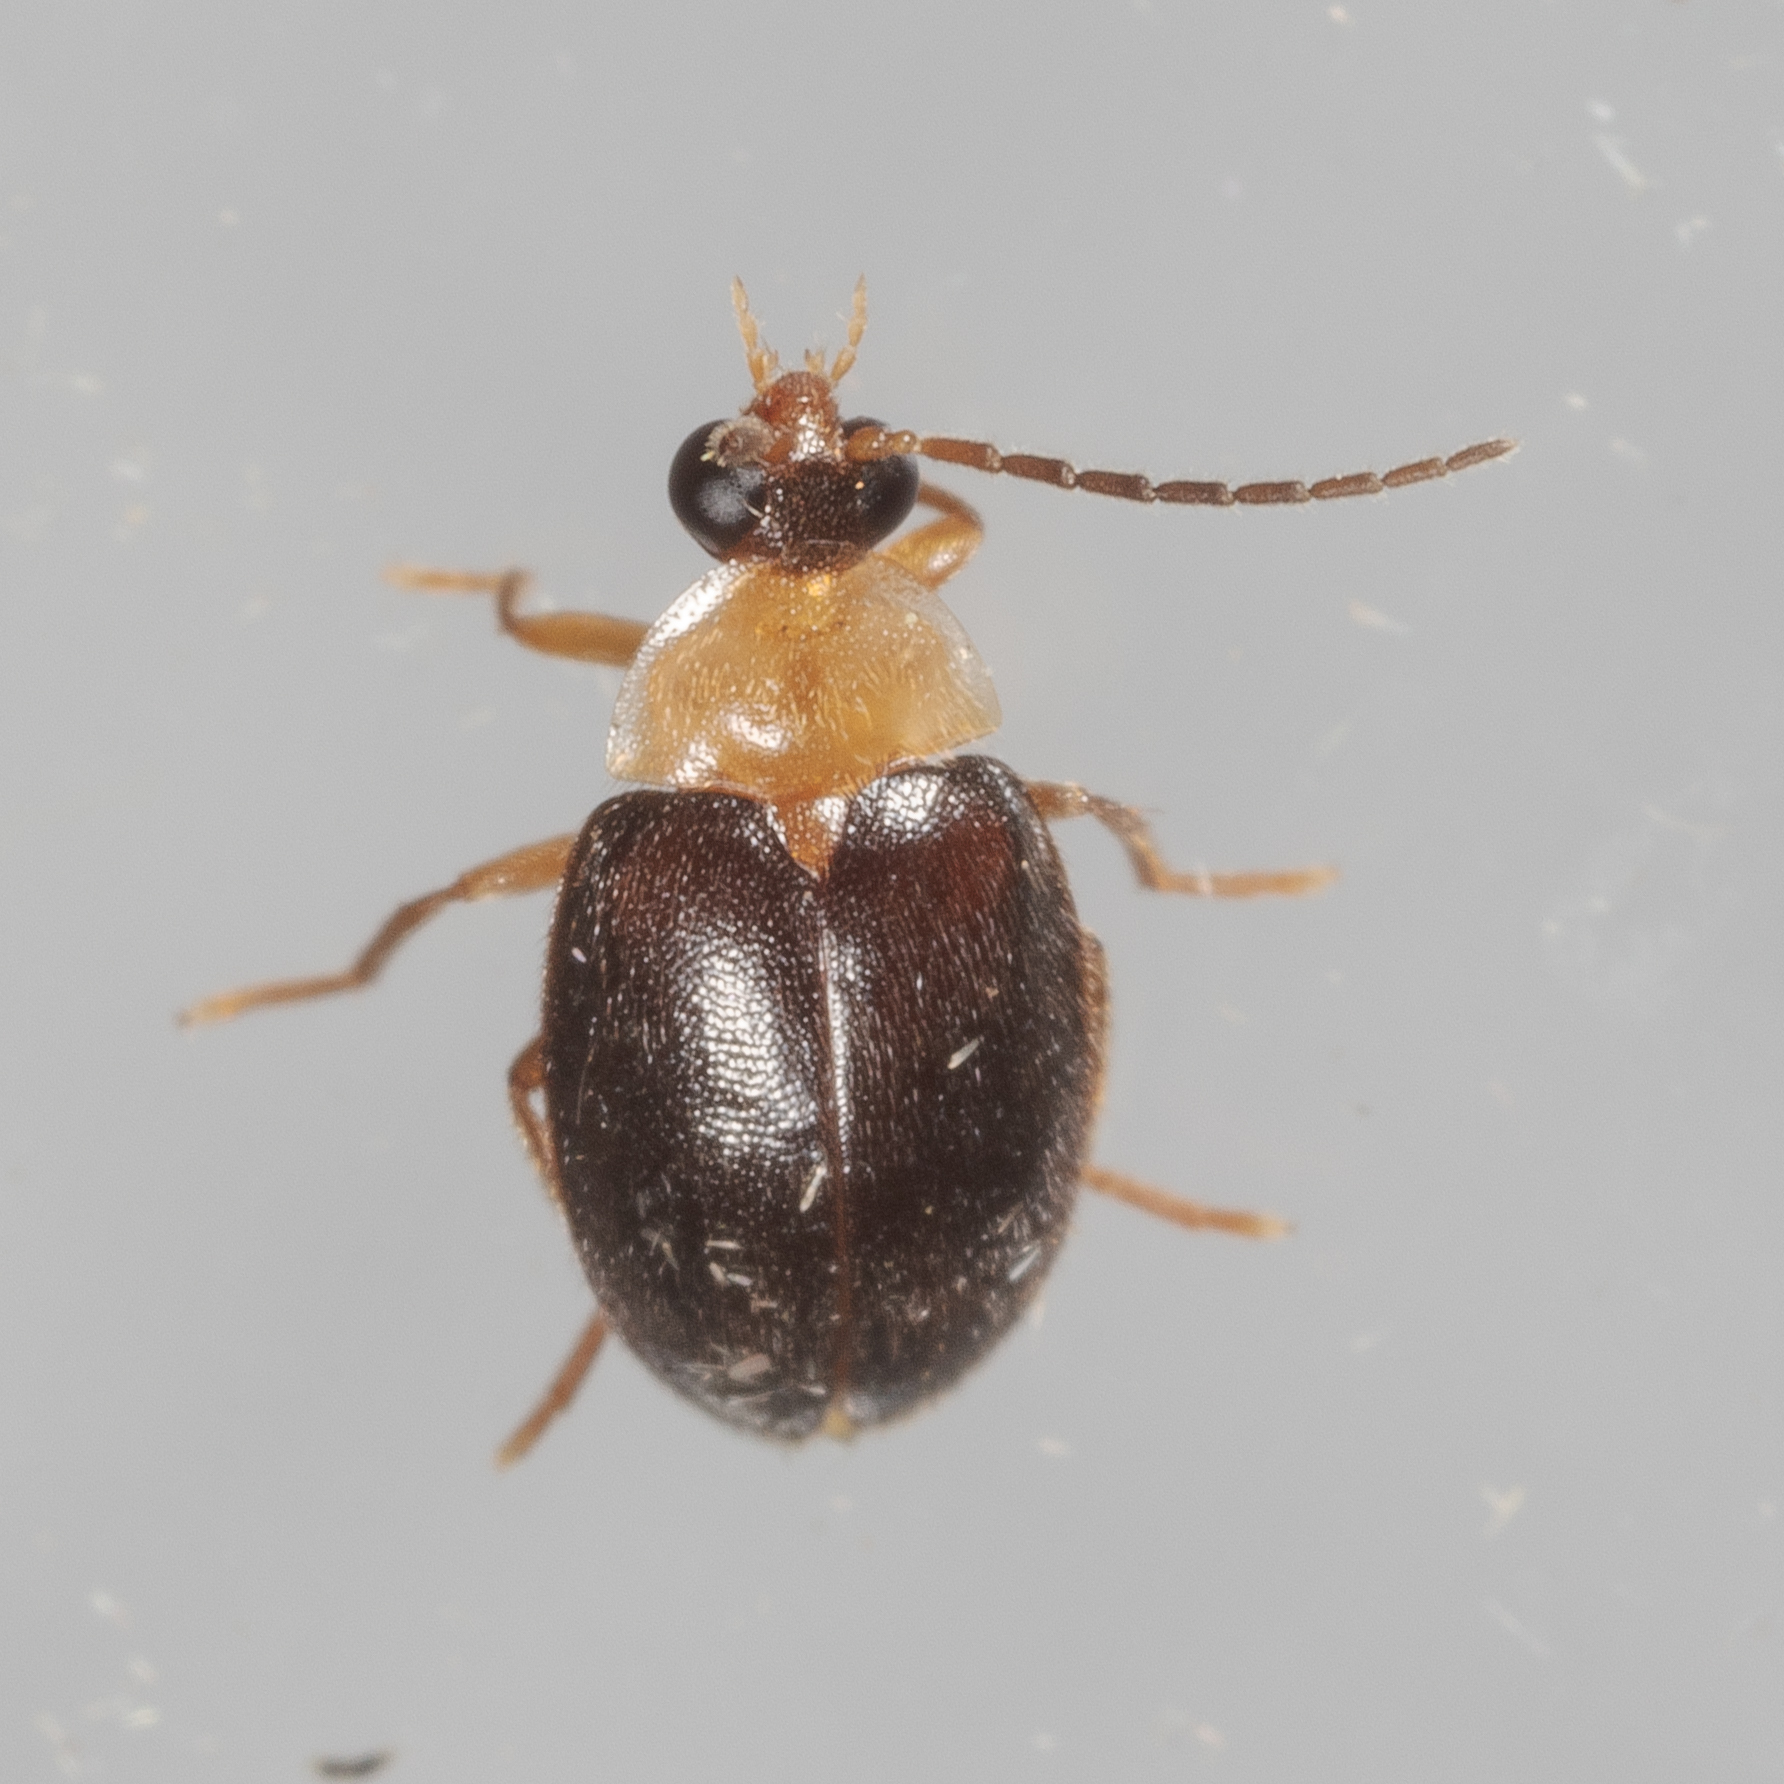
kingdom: Animalia
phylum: Arthropoda
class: Insecta
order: Coleoptera
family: Scirtidae
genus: Sacodes
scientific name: Sacodes pulchella
